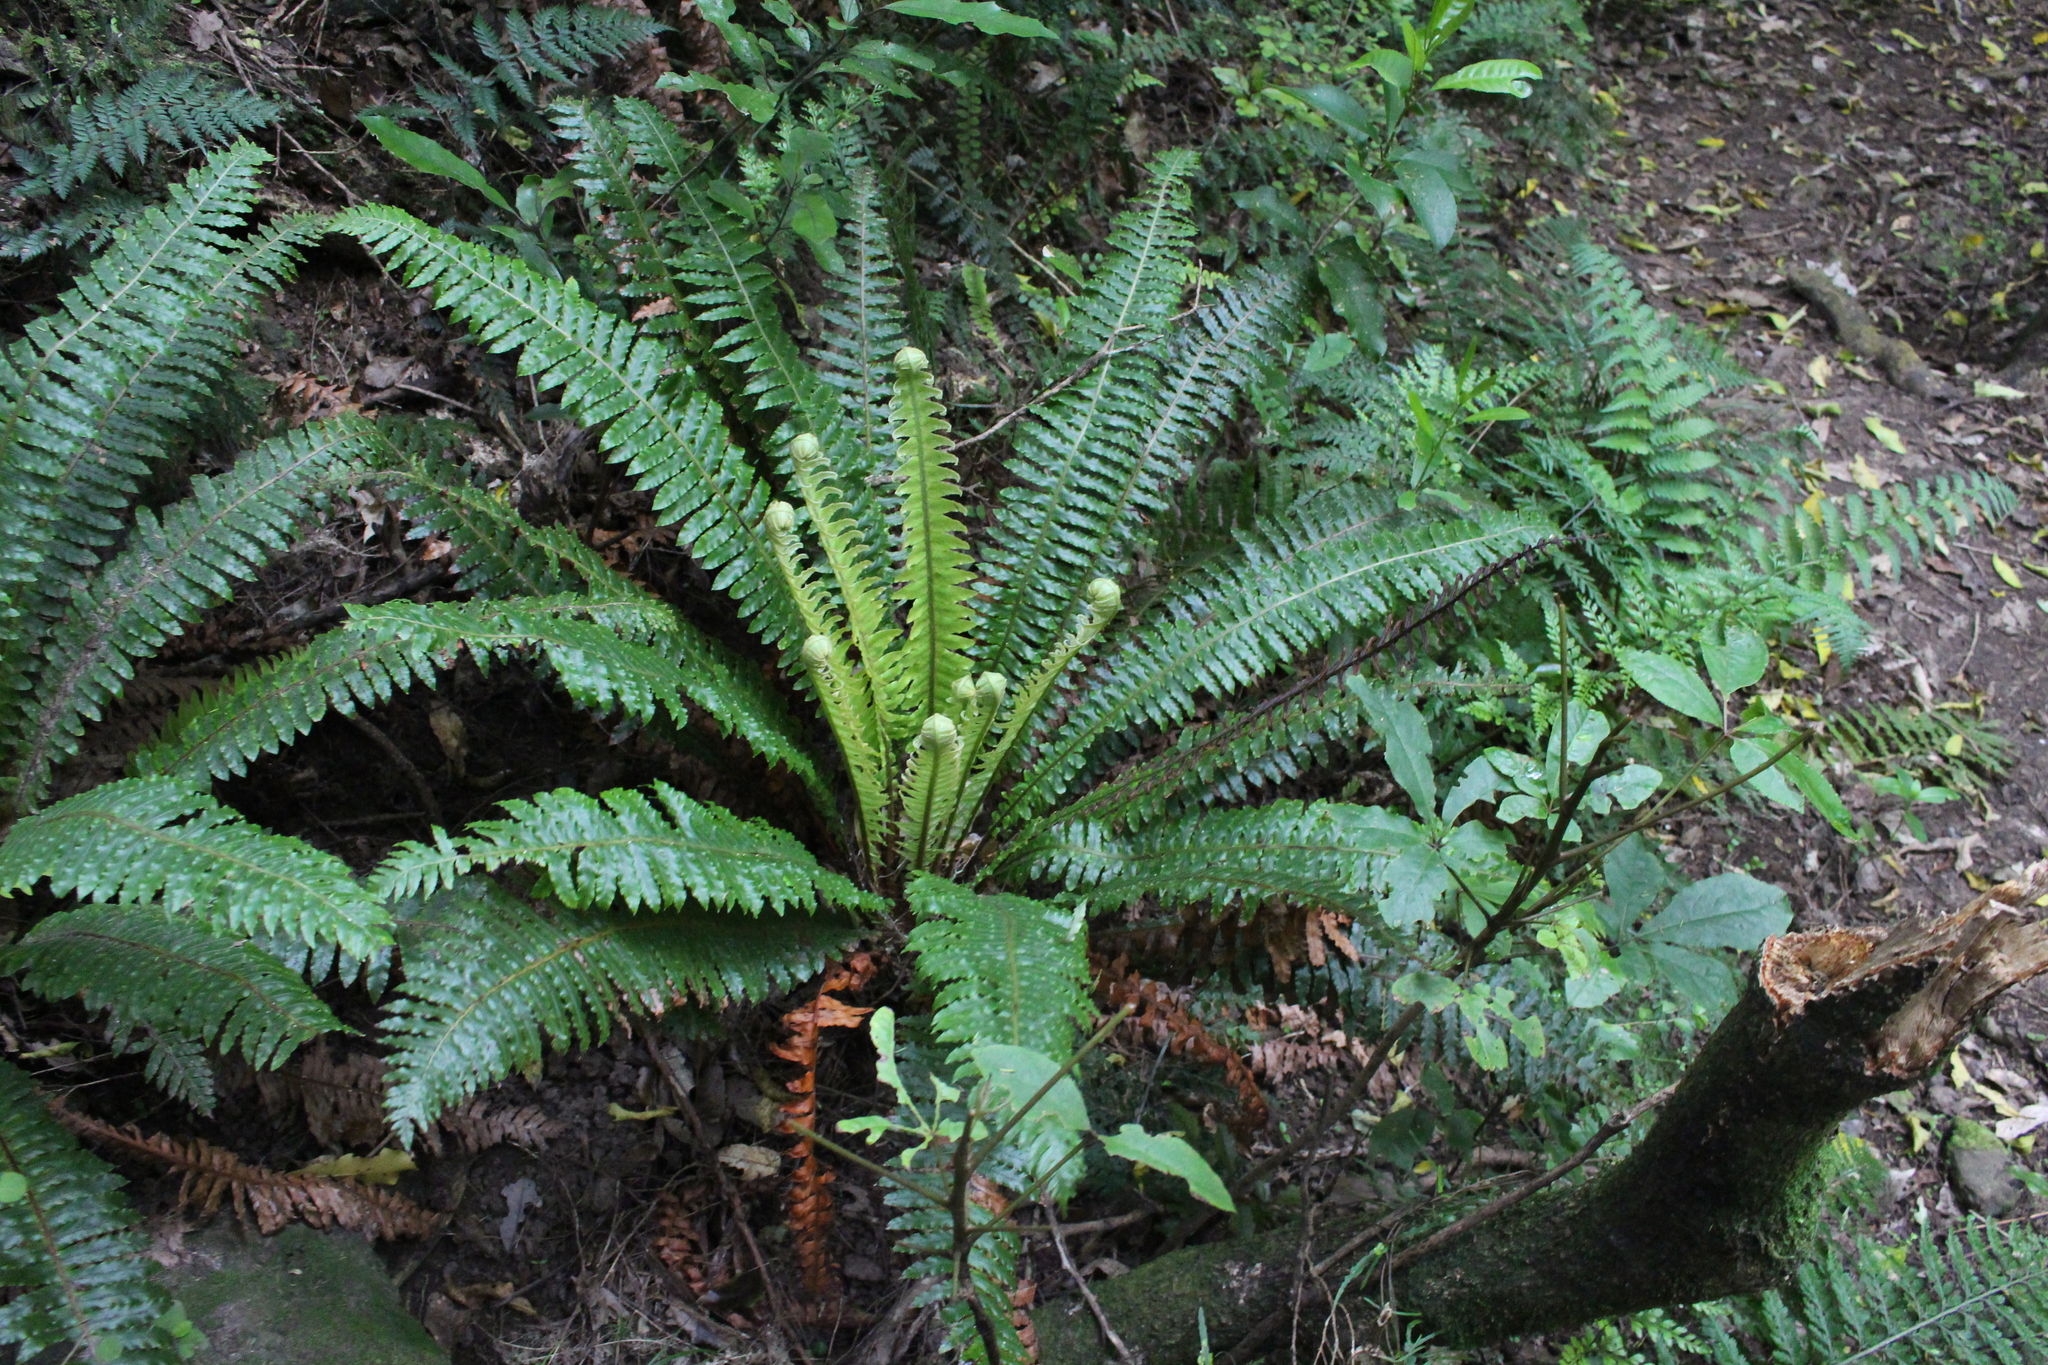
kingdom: Plantae
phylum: Tracheophyta
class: Polypodiopsida
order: Polypodiales
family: Blechnaceae
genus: Lomaria
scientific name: Lomaria discolor
